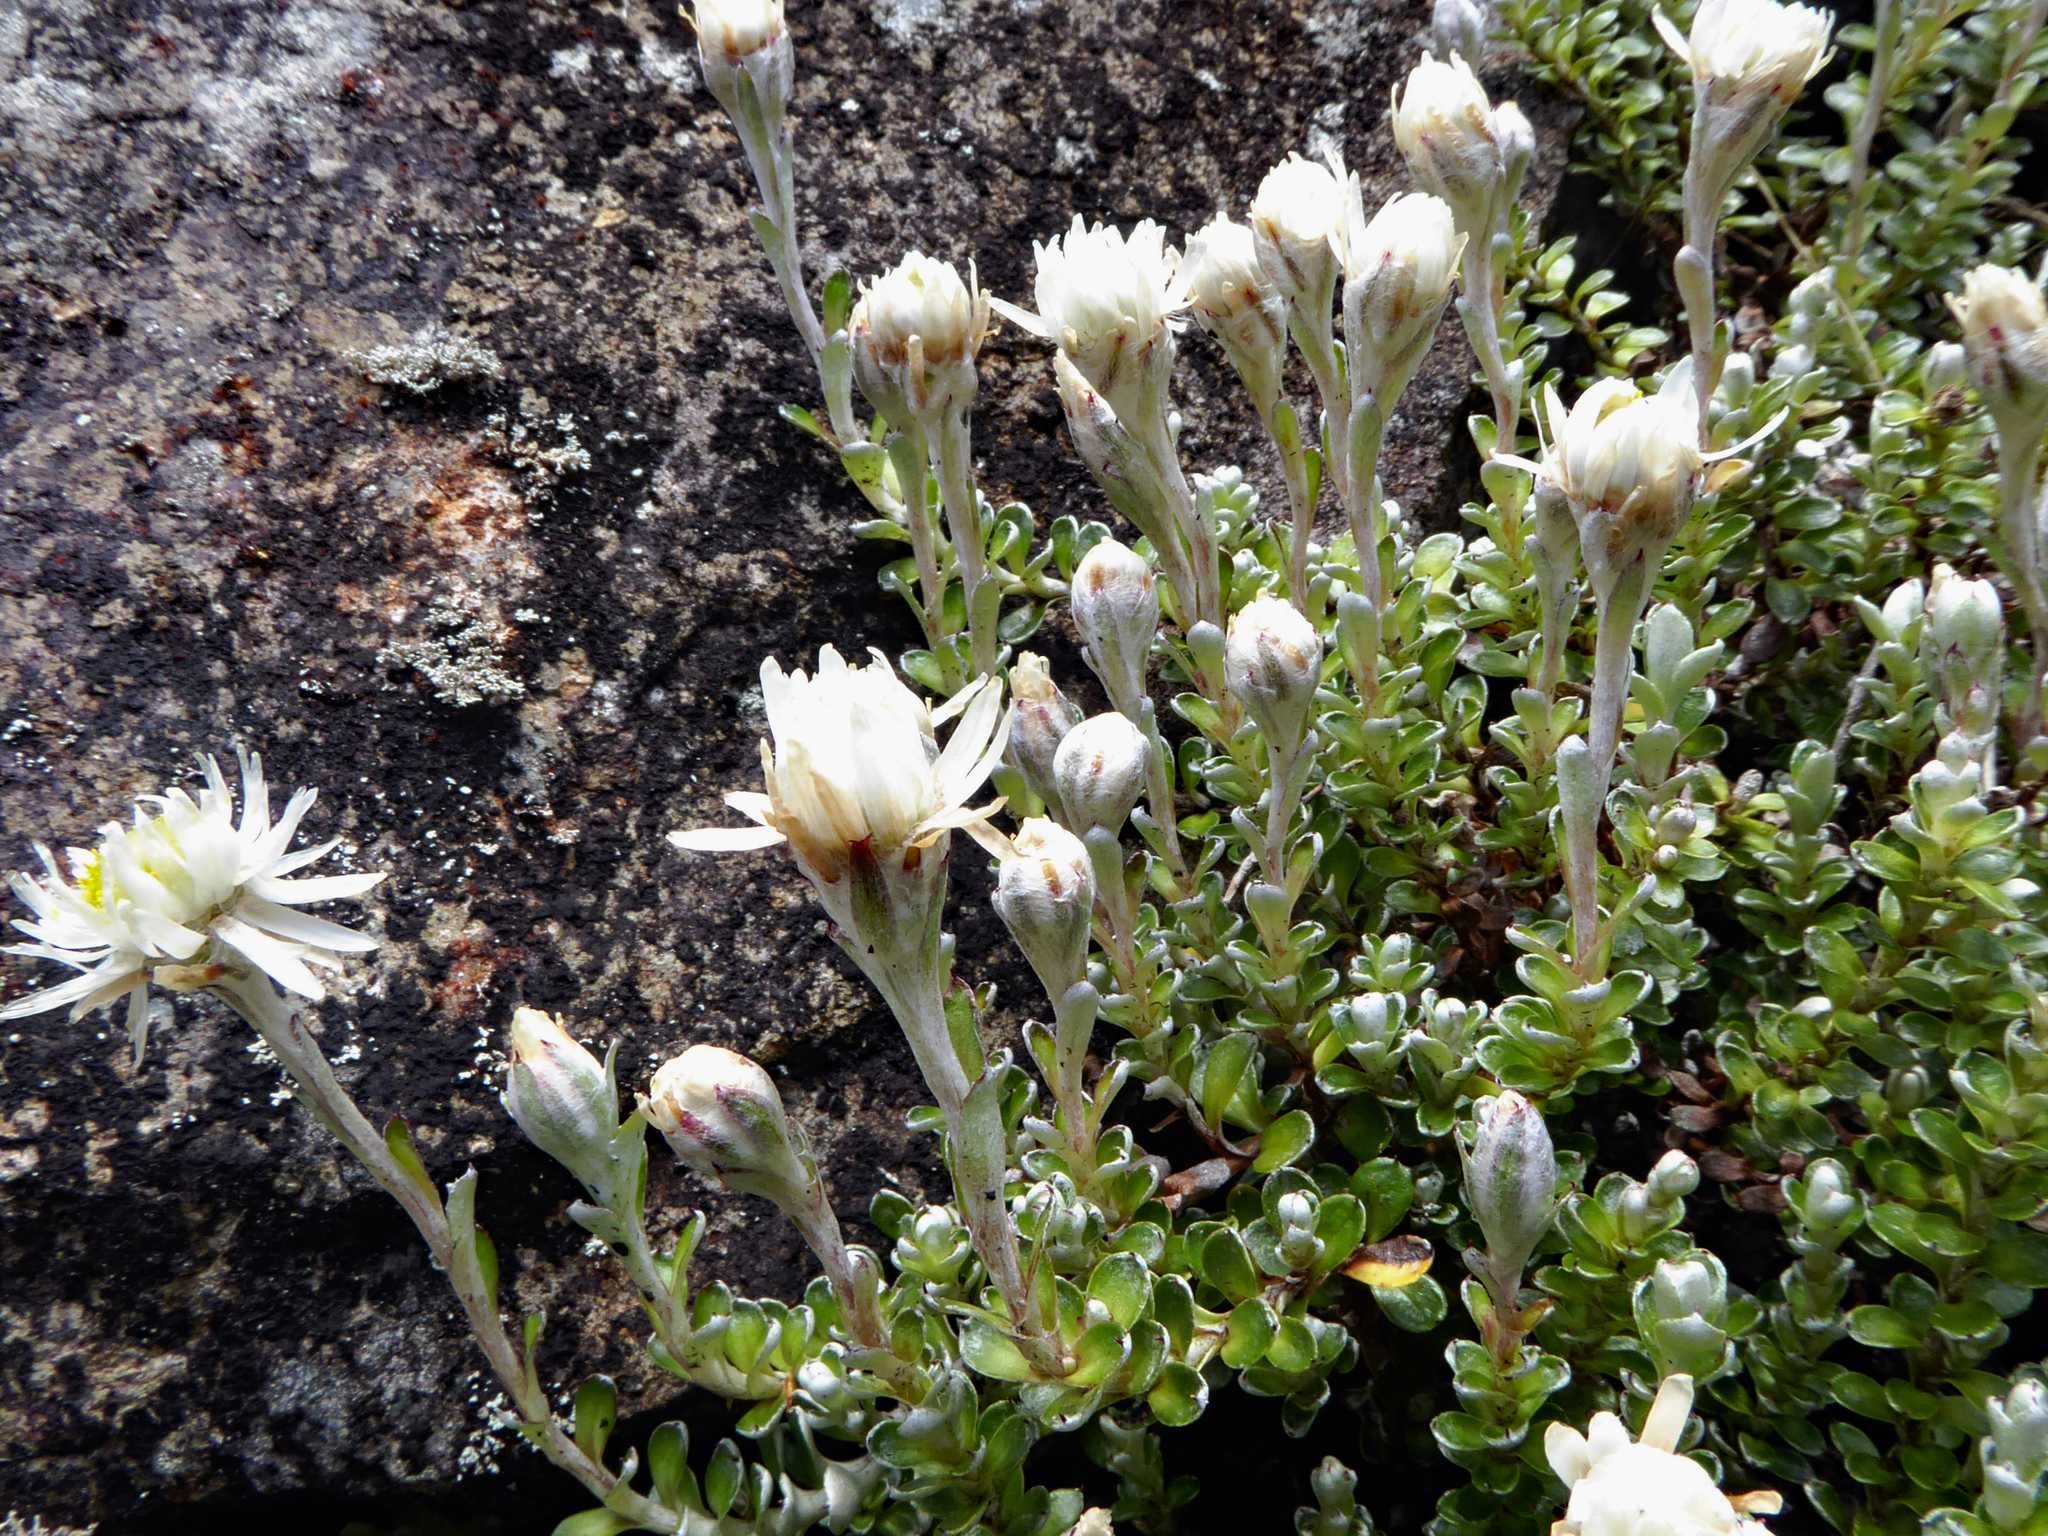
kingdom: Plantae
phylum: Tracheophyta
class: Magnoliopsida
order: Asterales
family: Asteraceae
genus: Anaphalioides
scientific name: Anaphalioides alpina
